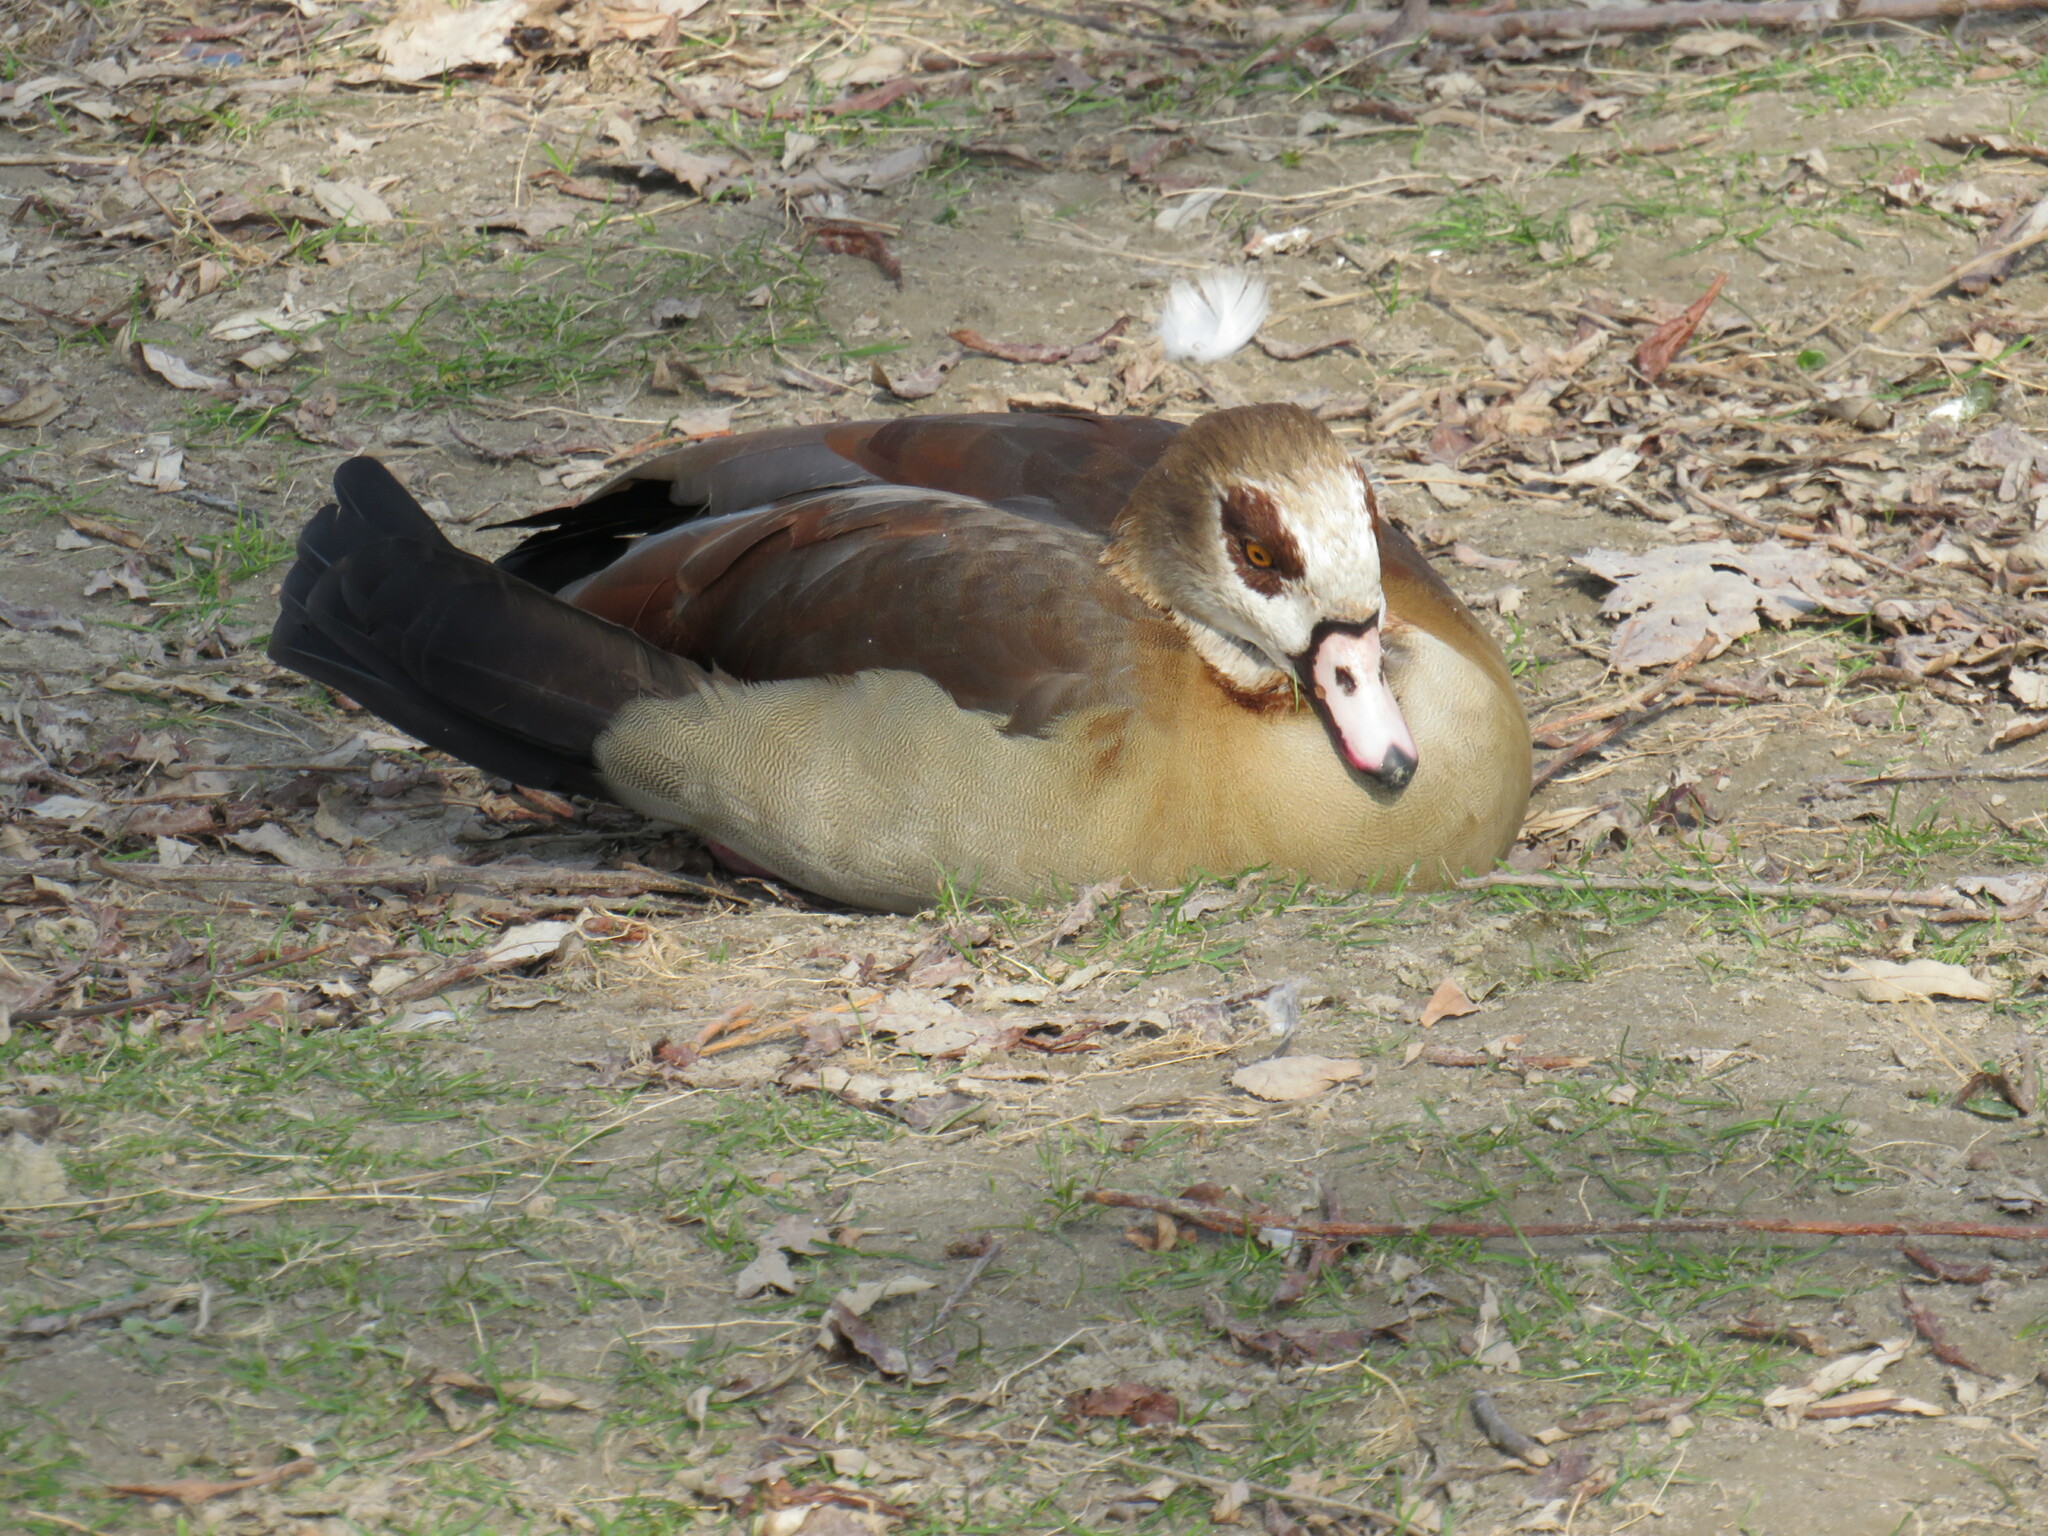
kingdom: Animalia
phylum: Chordata
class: Aves
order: Anseriformes
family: Anatidae
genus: Alopochen
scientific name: Alopochen aegyptiaca
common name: Egyptian goose
